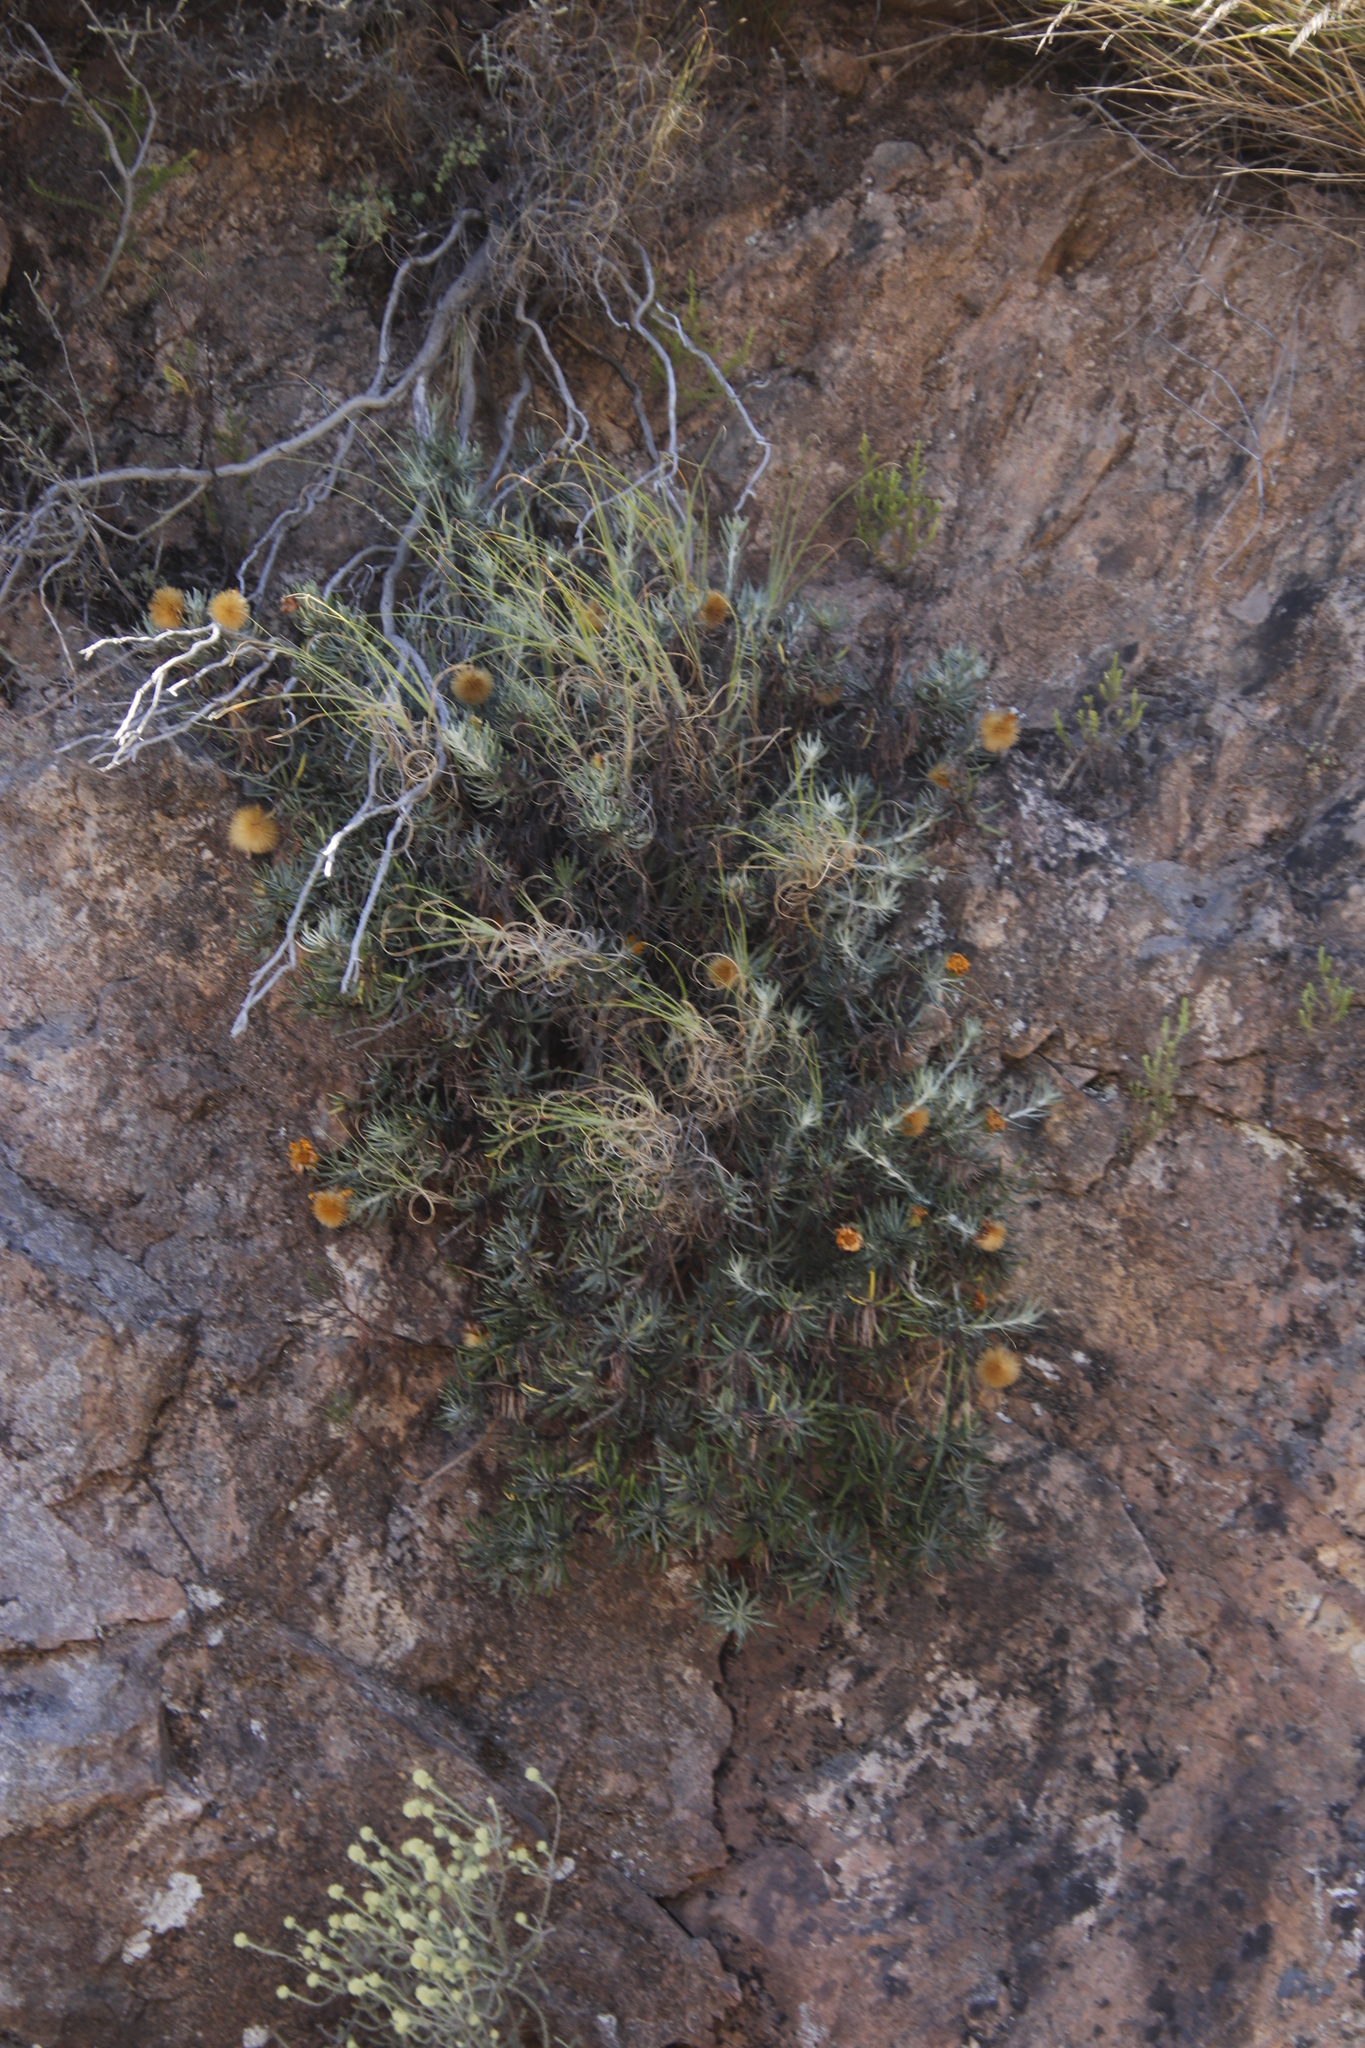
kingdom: Plantae
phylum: Tracheophyta
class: Magnoliopsida
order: Asterales
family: Asteraceae
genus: Heterolepis
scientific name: Heterolepis aliena
